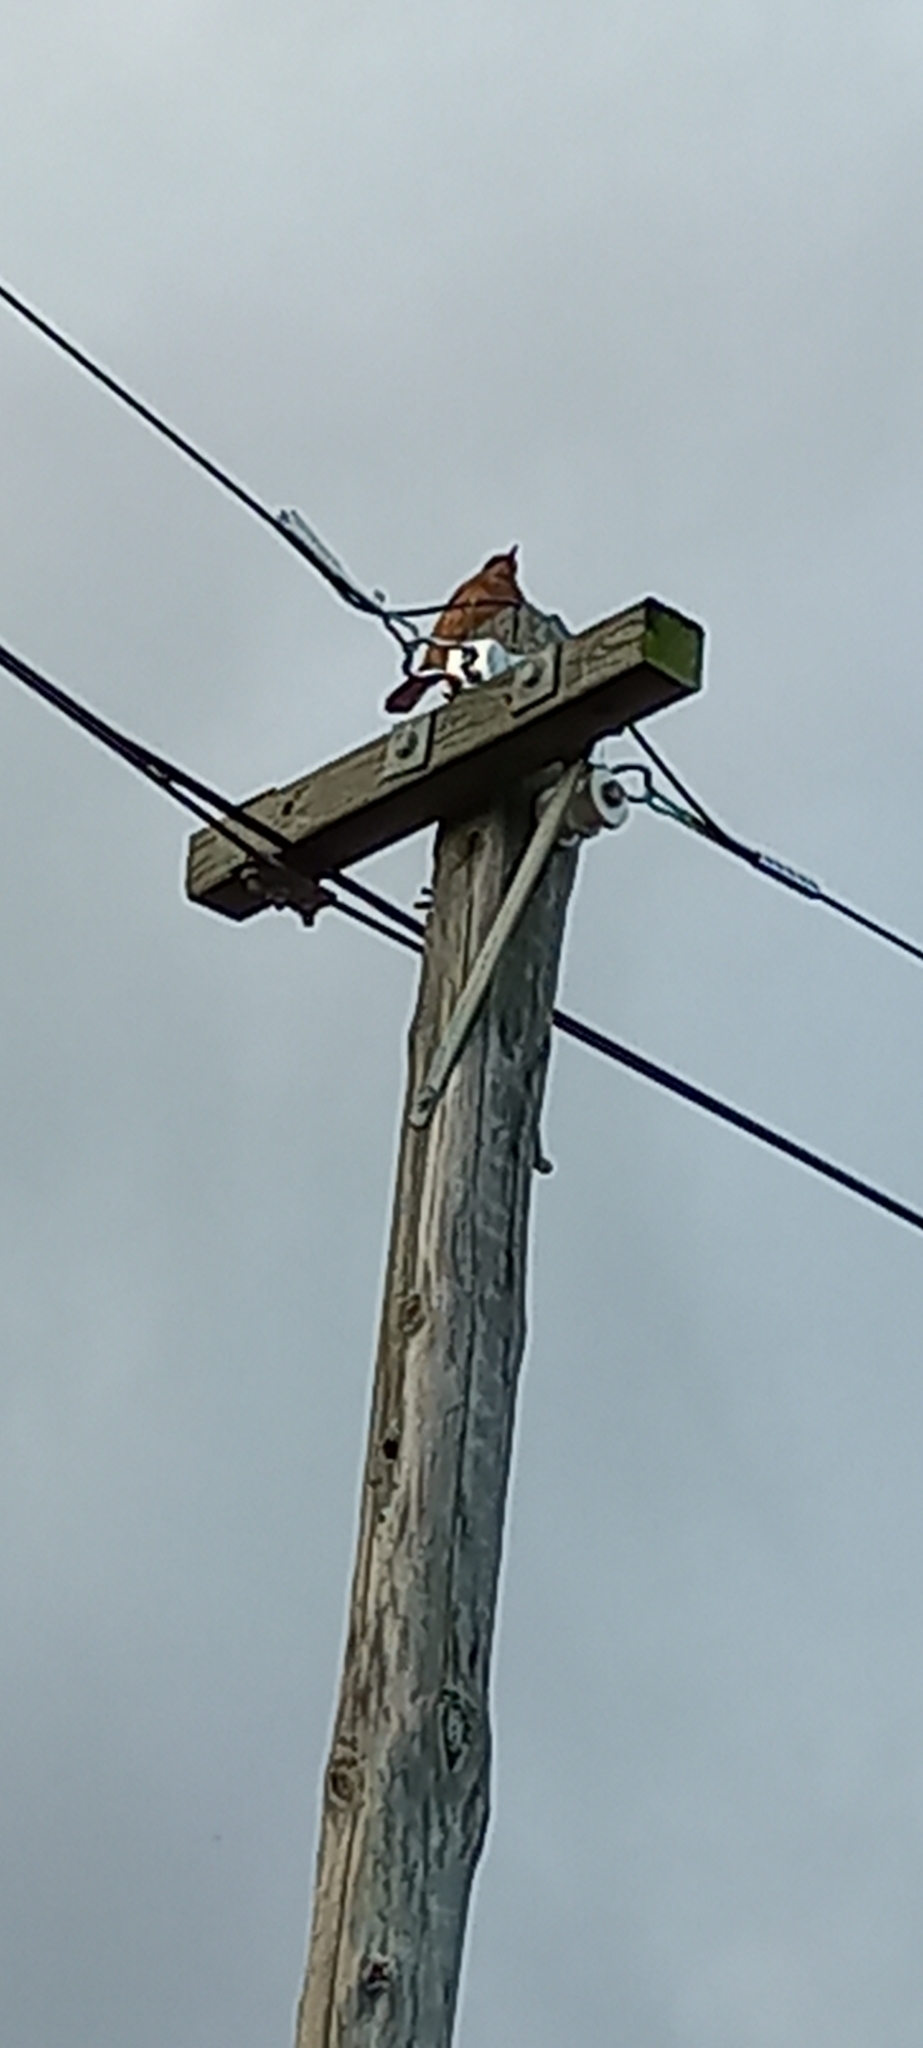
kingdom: Animalia
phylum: Chordata
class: Aves
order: Passeriformes
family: Muscicapidae
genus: Monticola
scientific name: Monticola rupestris
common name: Cape rock thrush
